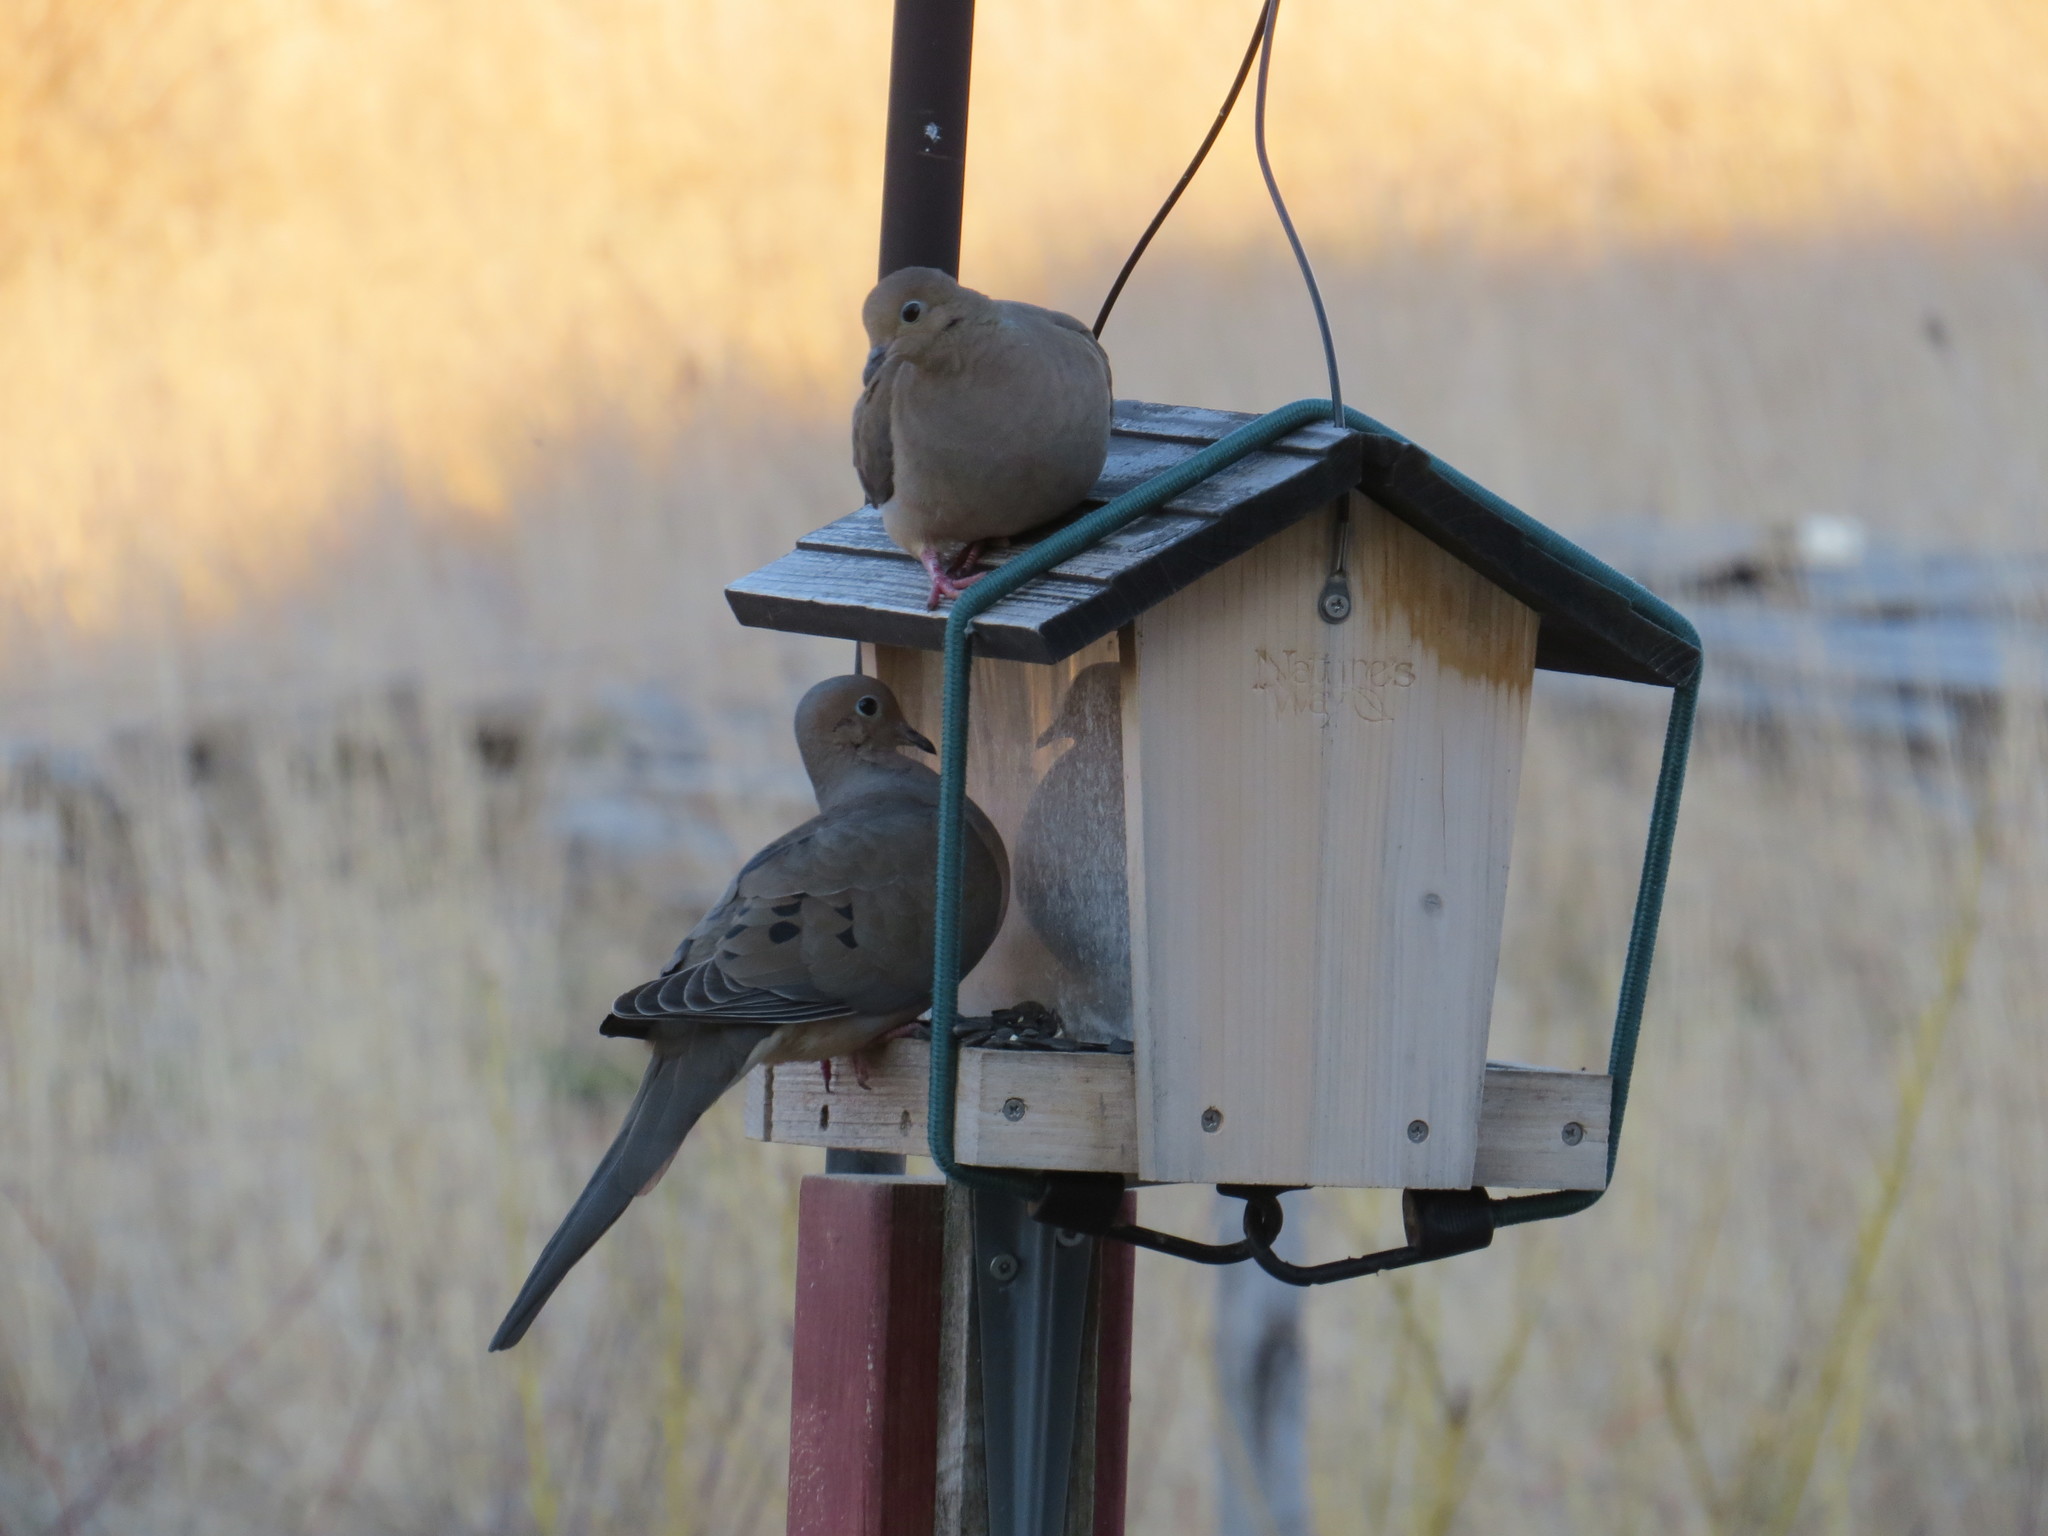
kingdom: Animalia
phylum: Chordata
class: Aves
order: Columbiformes
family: Columbidae
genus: Zenaida
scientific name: Zenaida macroura
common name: Mourning dove
